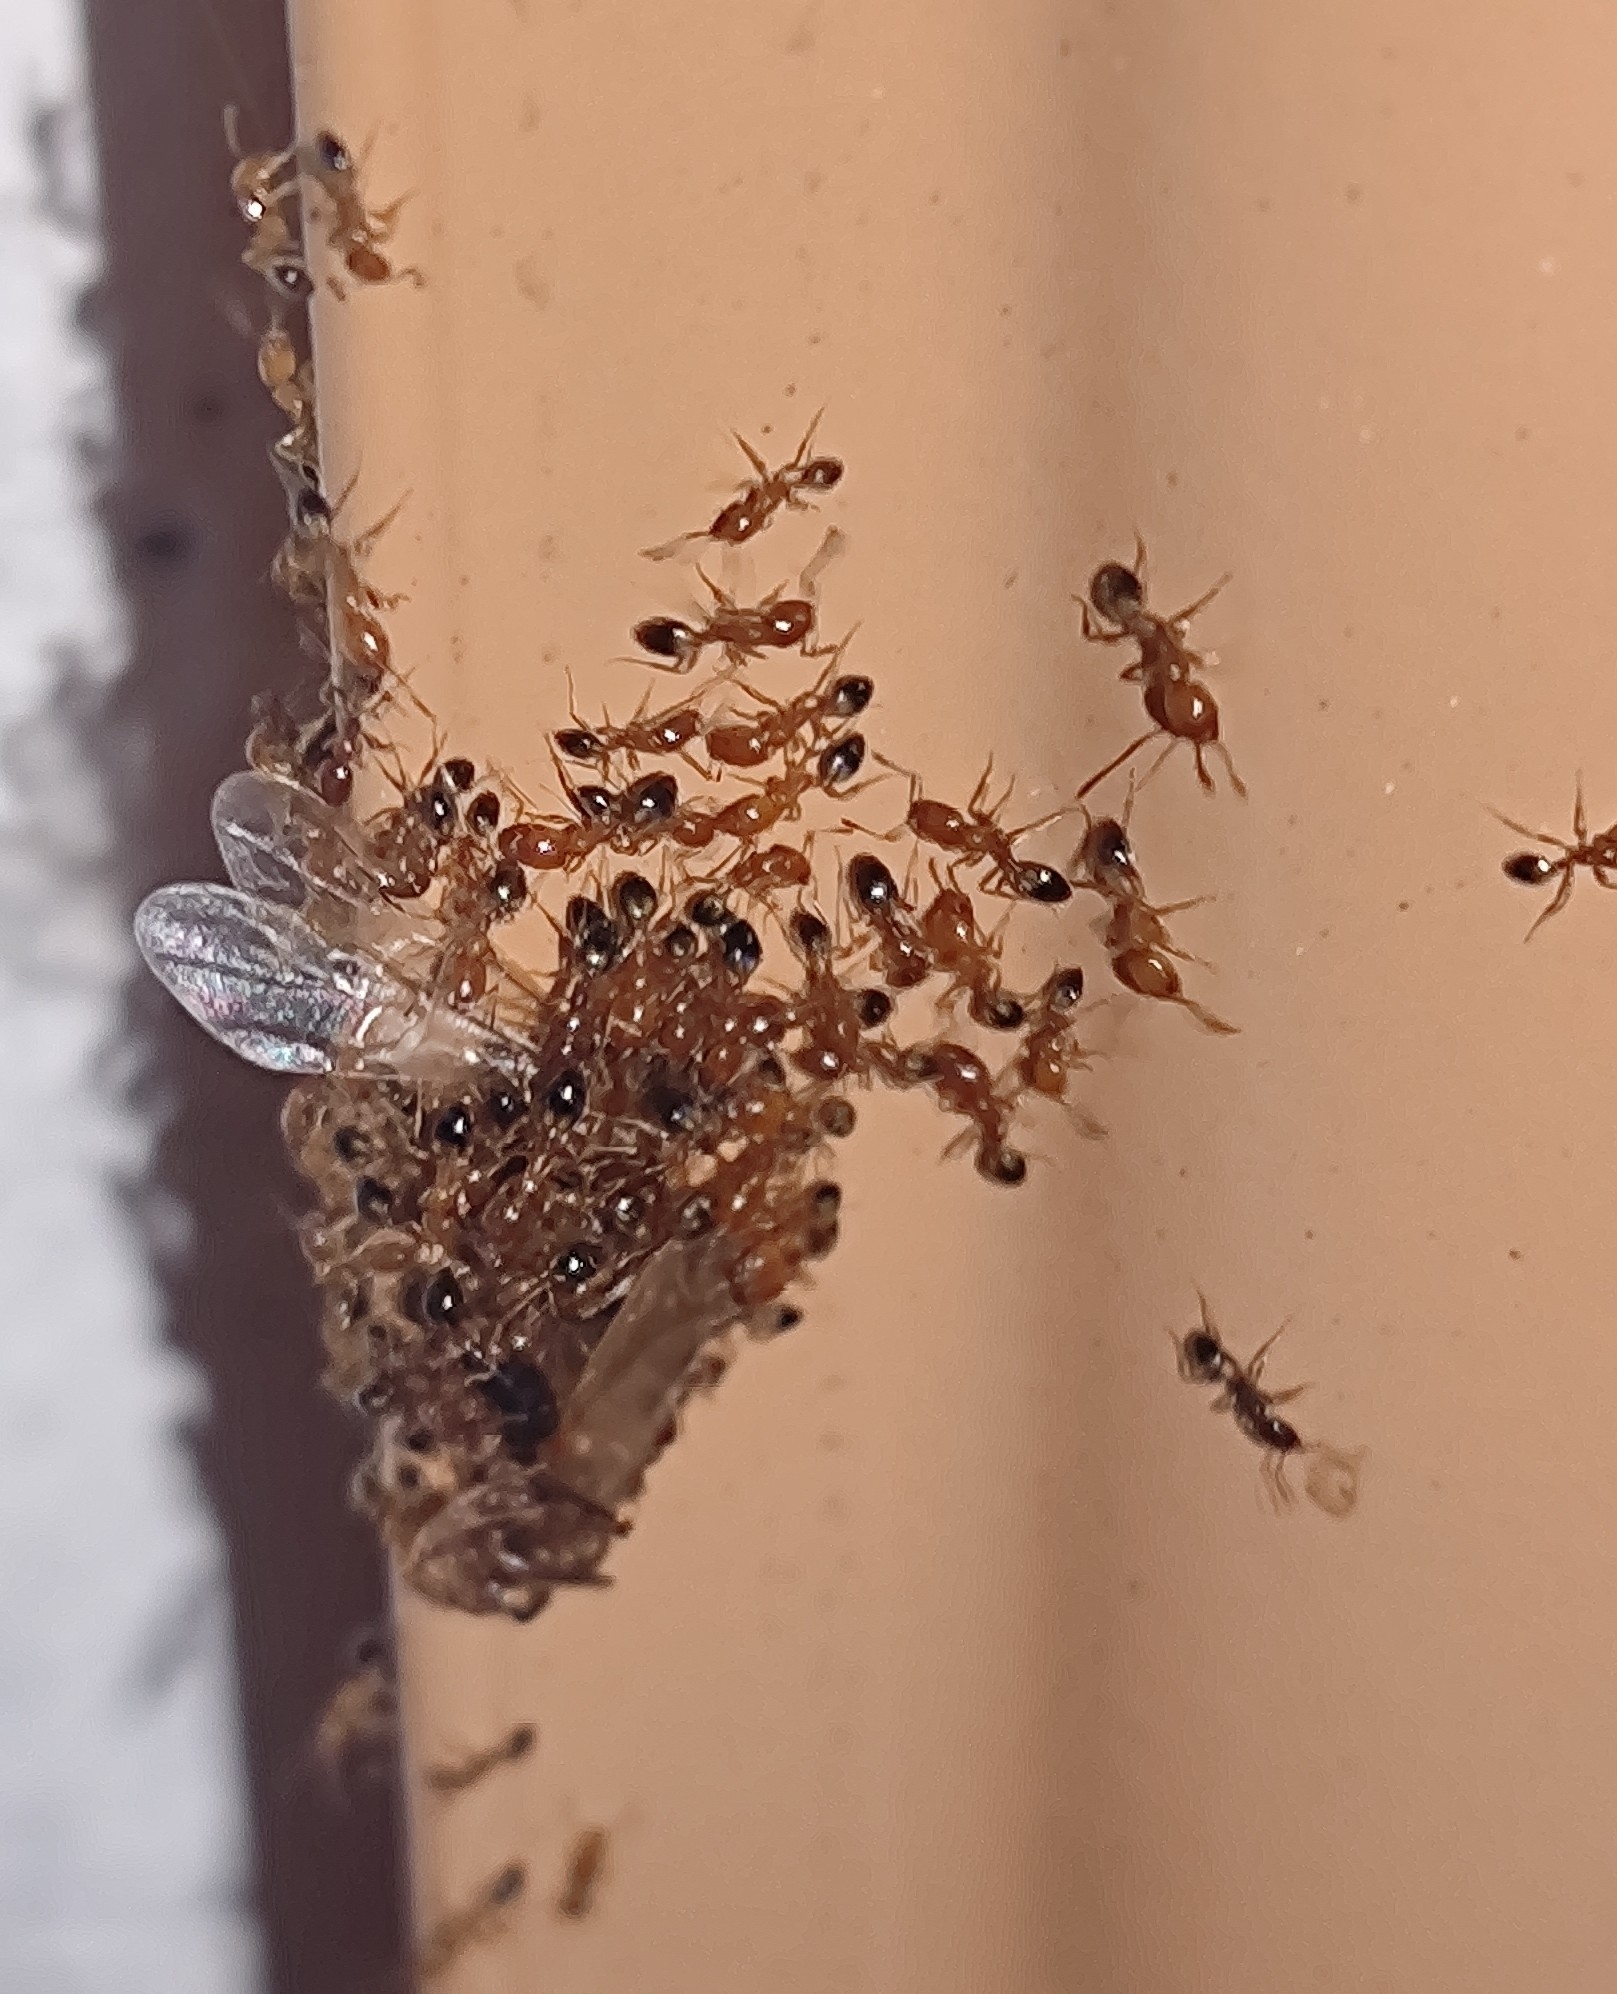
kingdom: Animalia
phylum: Arthropoda
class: Insecta
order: Hymenoptera
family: Formicidae
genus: Monomorium
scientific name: Monomorium destructor
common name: Destructive trailing ant
